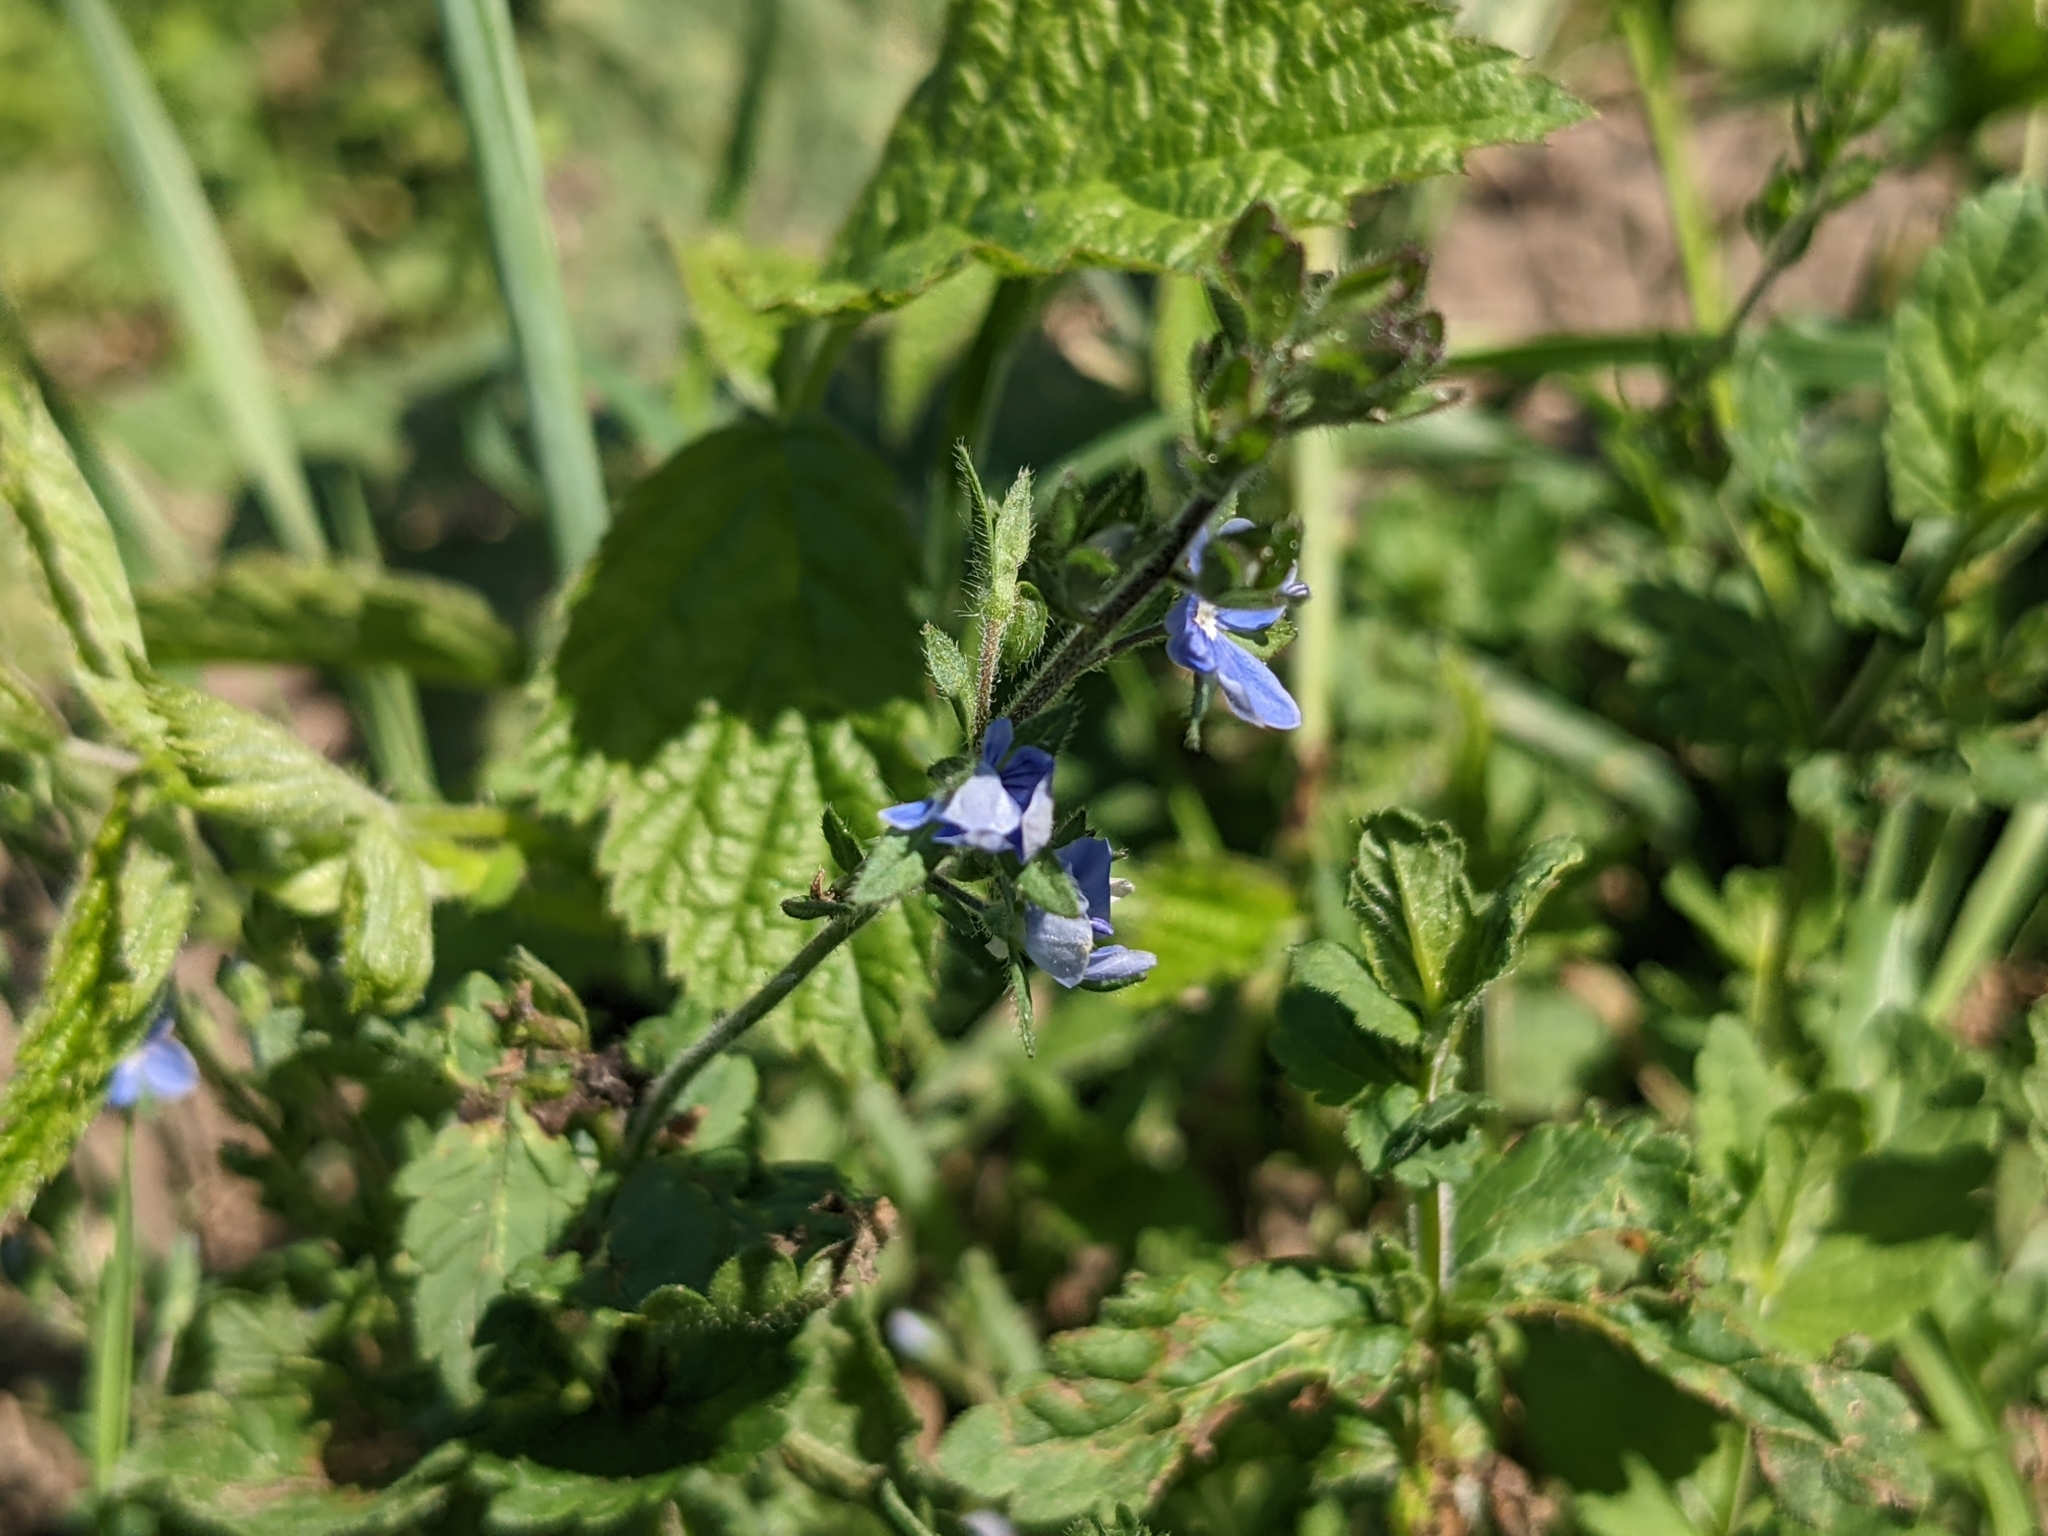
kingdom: Plantae
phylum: Tracheophyta
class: Magnoliopsida
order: Lamiales
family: Plantaginaceae
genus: Veronica
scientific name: Veronica chamaedrys
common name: Germander speedwell
